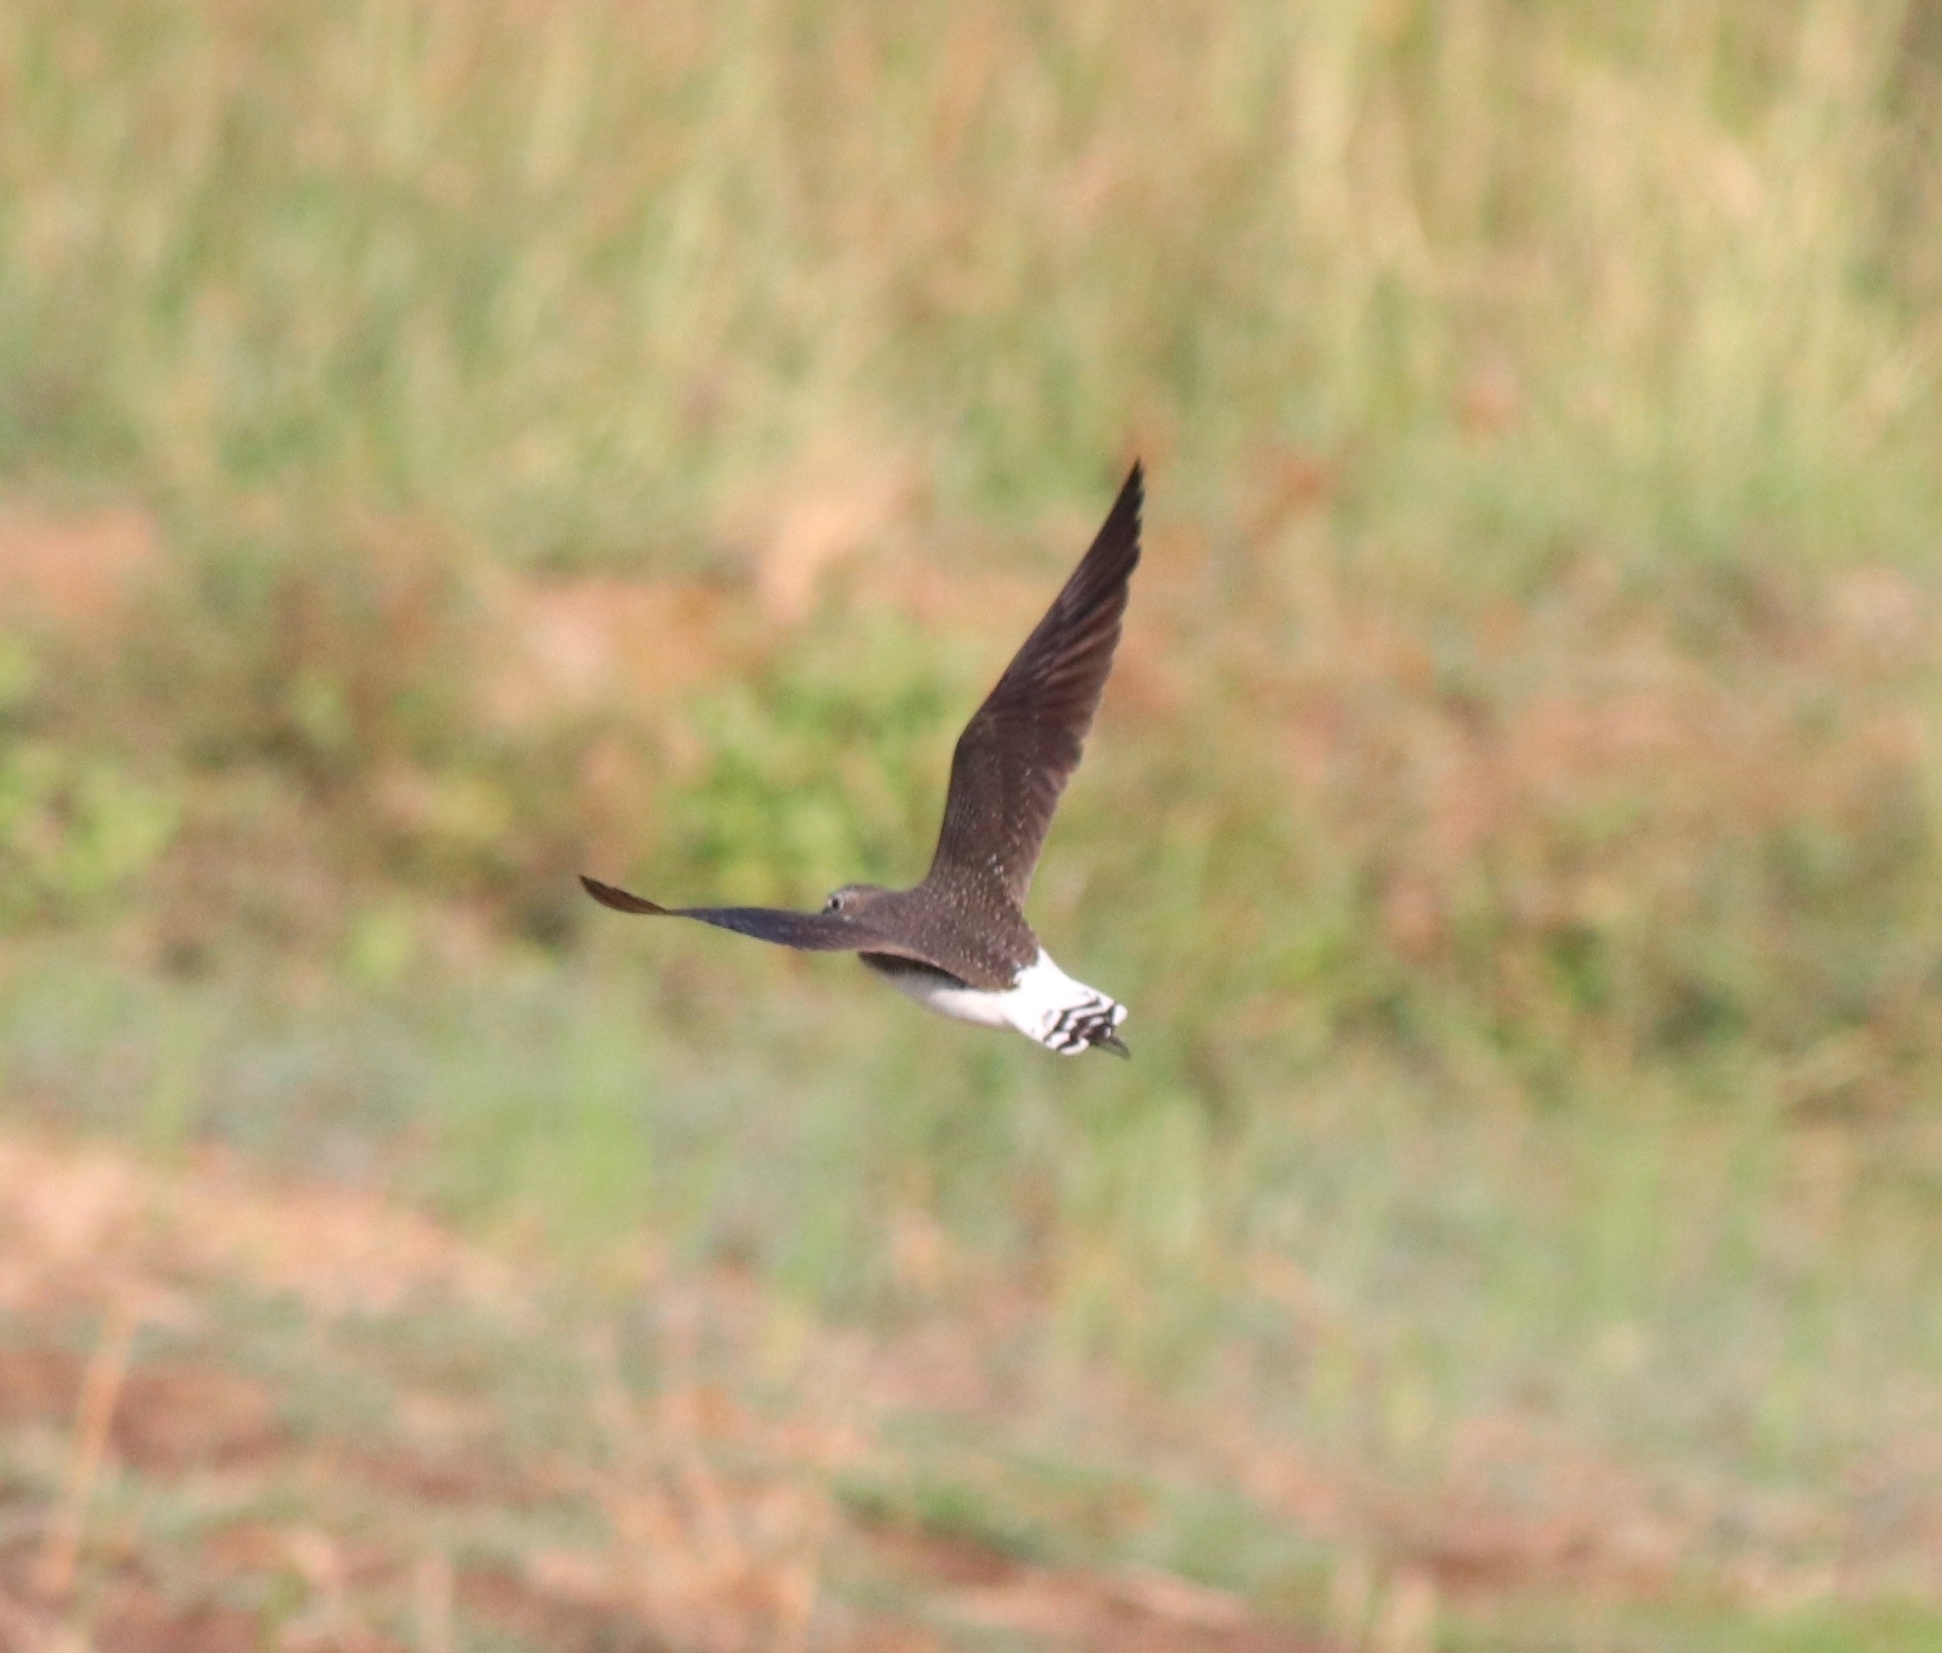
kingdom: Animalia
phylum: Chordata
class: Aves
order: Charadriiformes
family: Scolopacidae
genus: Tringa
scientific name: Tringa ochropus
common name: Green sandpiper
